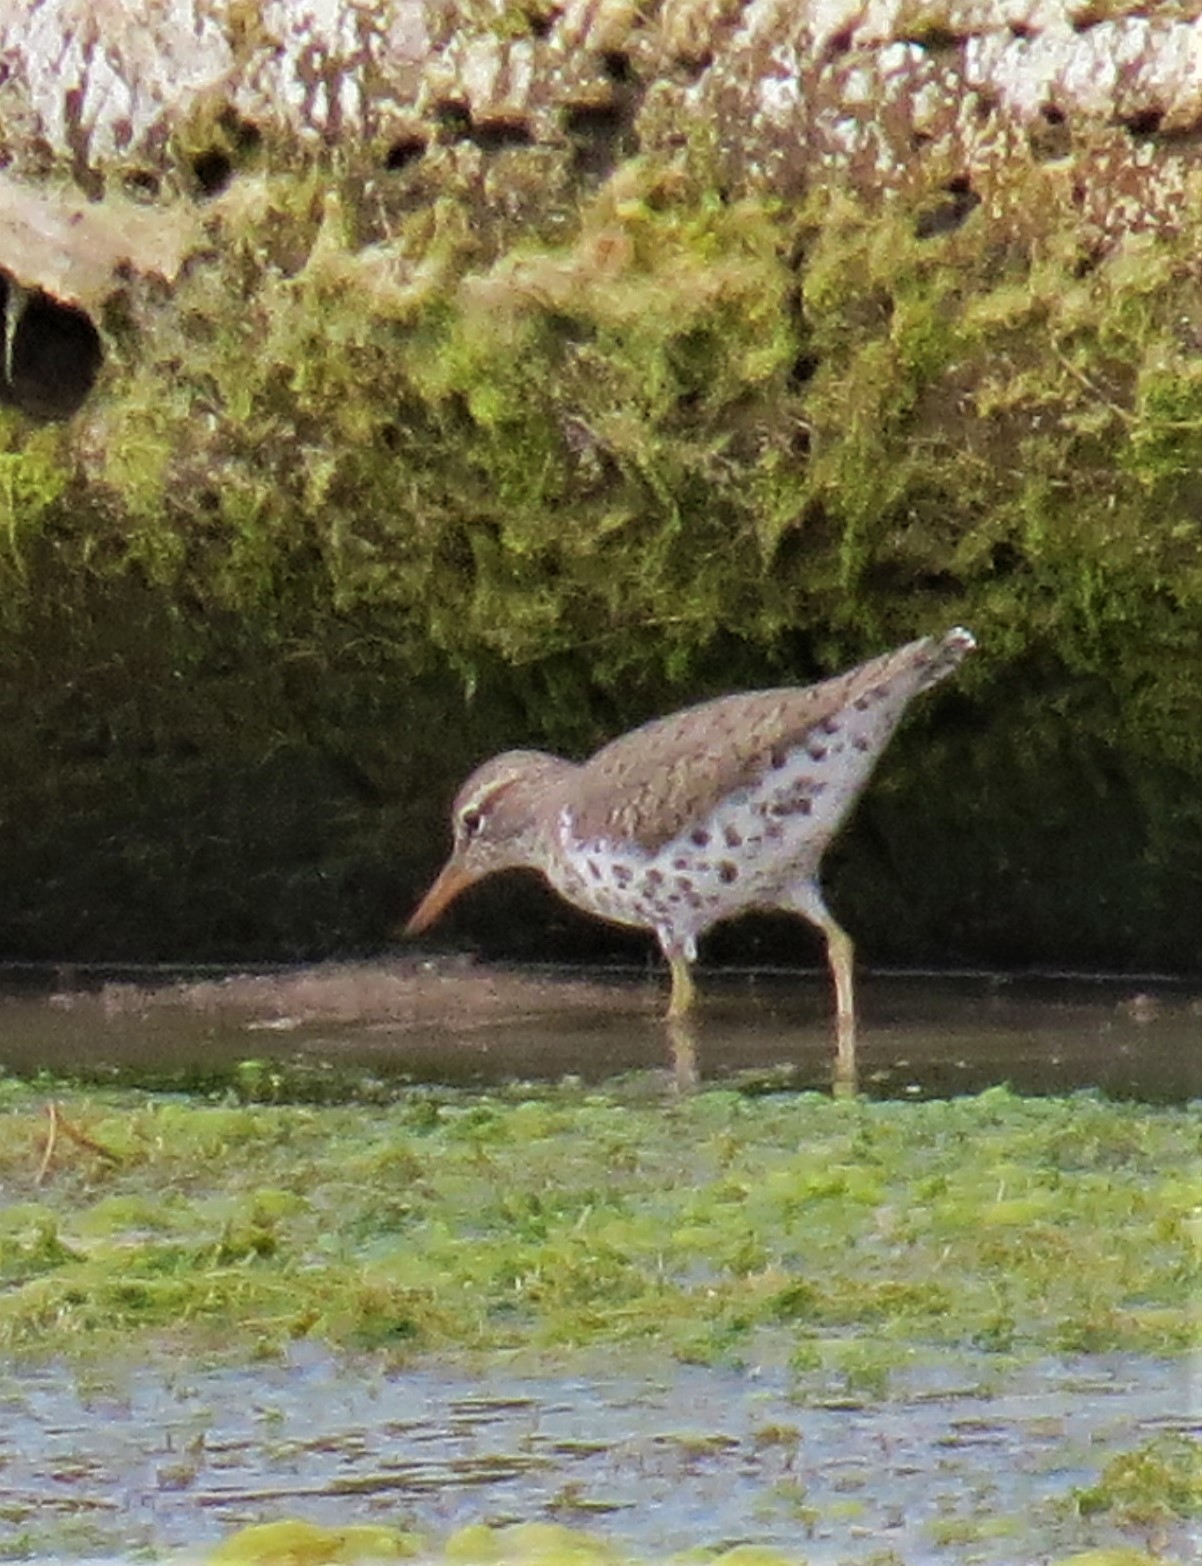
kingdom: Animalia
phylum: Chordata
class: Aves
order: Charadriiformes
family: Scolopacidae
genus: Actitis
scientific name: Actitis macularius
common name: Spotted sandpiper
